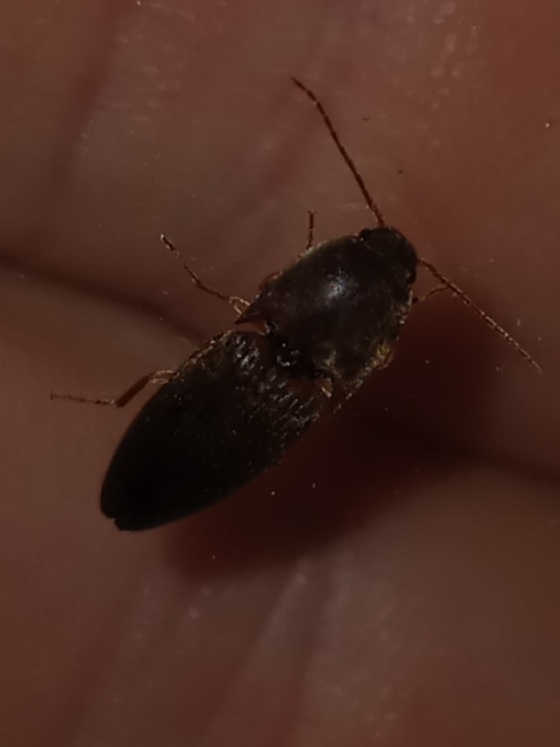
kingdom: Animalia
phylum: Arthropoda
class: Insecta
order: Coleoptera
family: Elateridae
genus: Conoderus
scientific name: Conoderus exsul
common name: Click beetle
